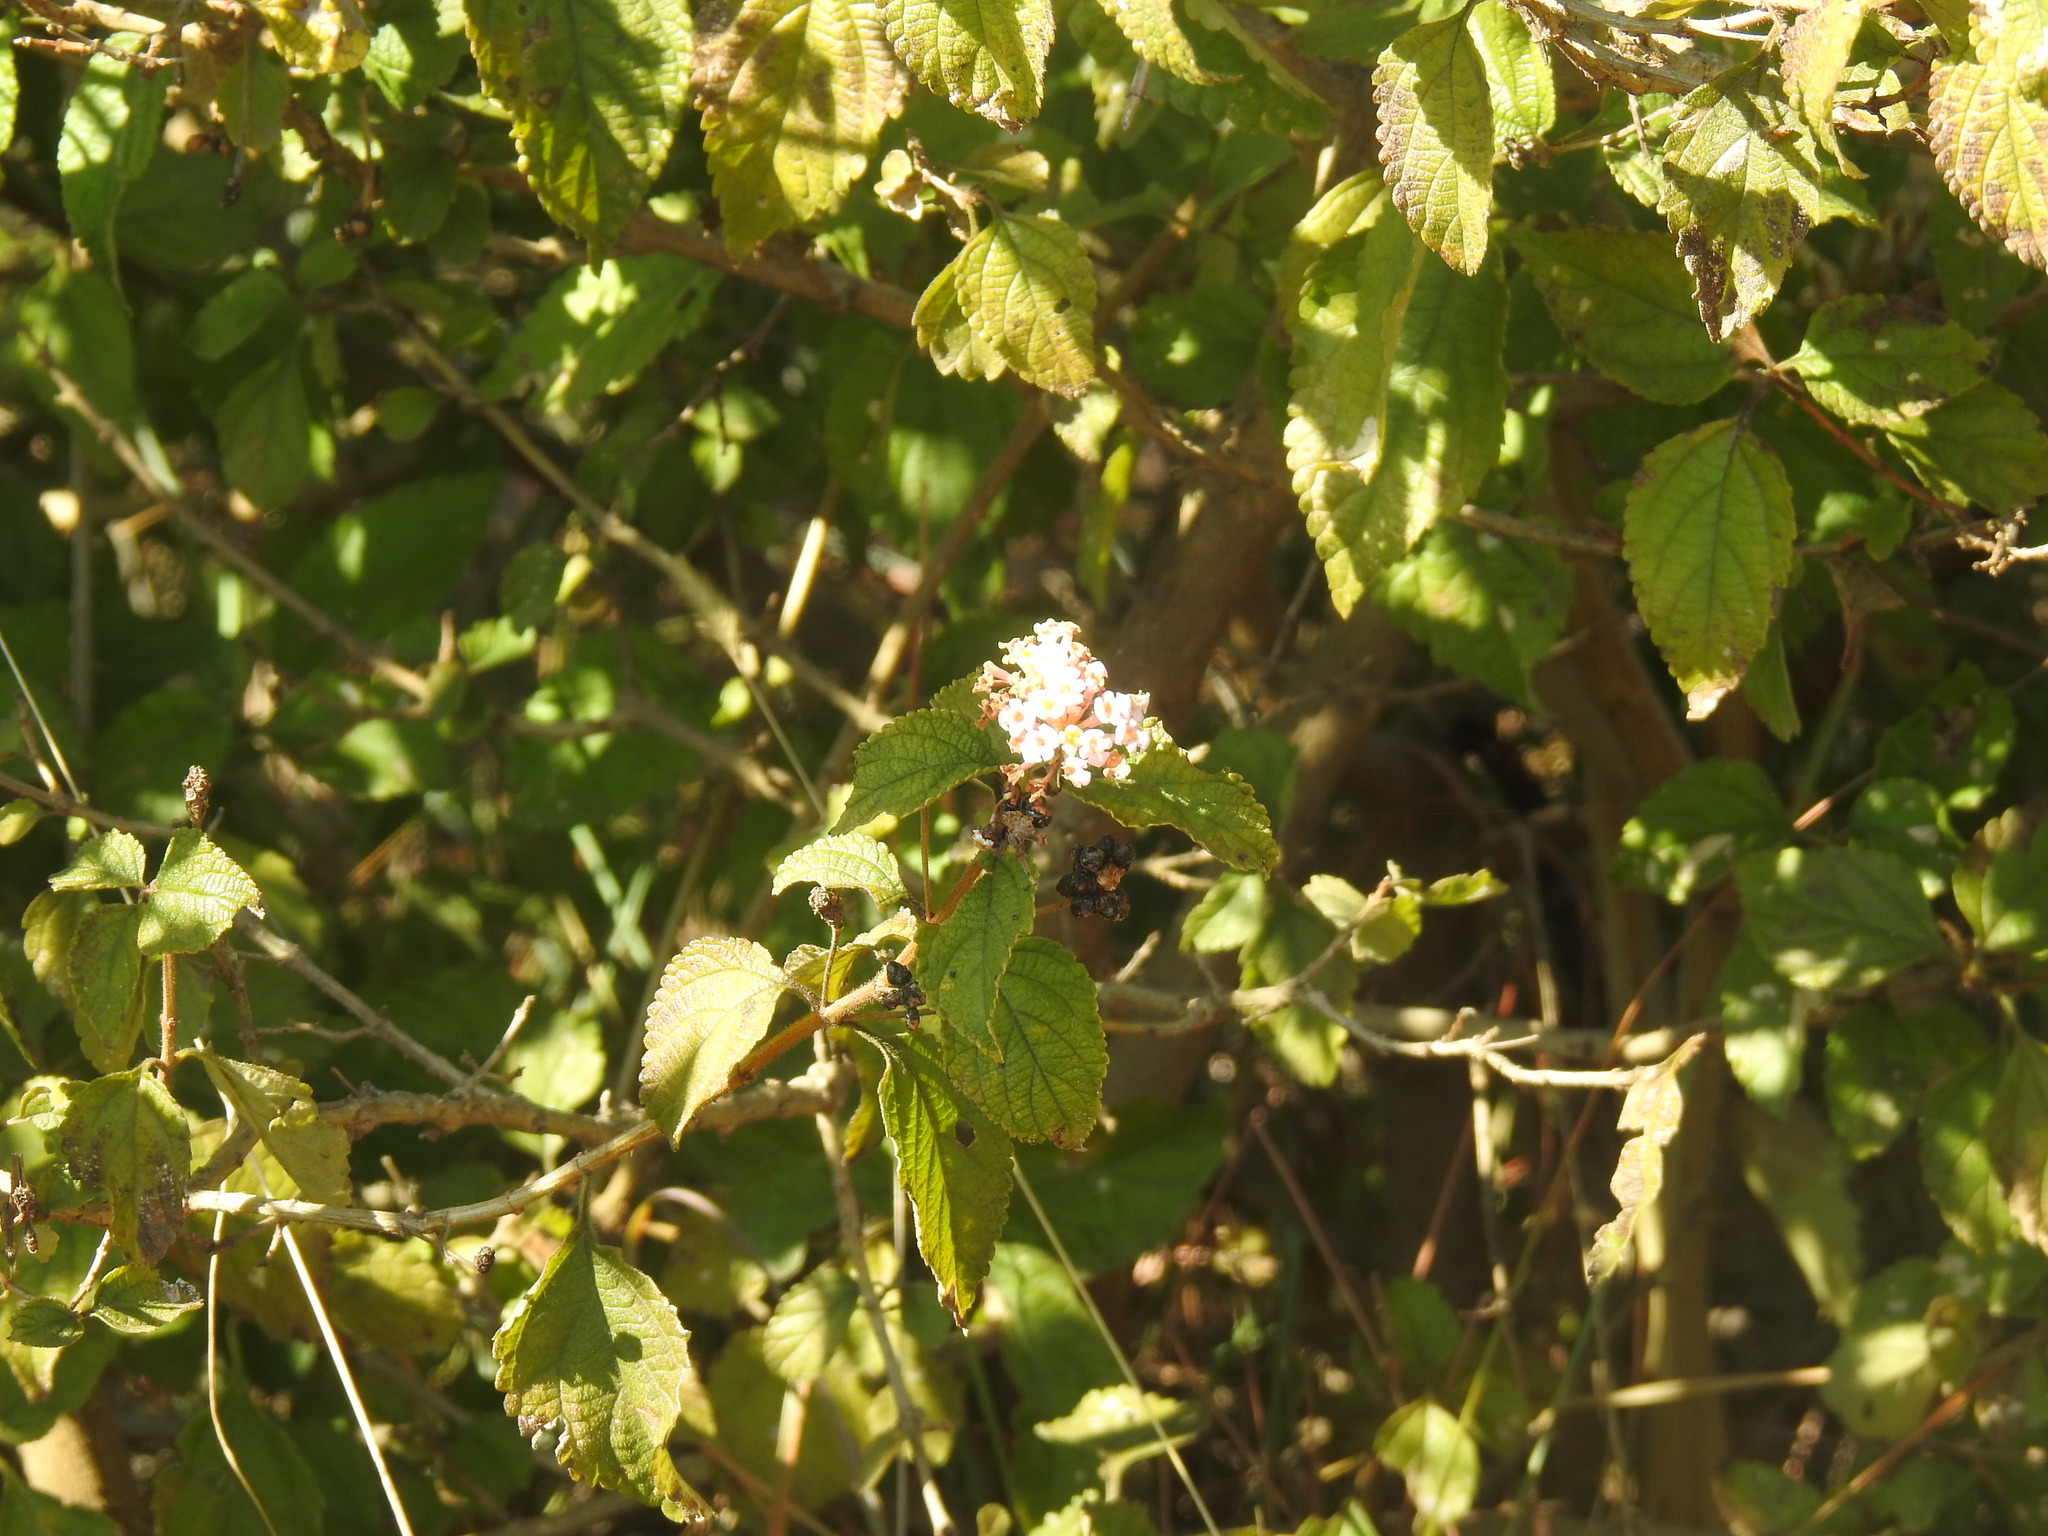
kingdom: Plantae
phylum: Tracheophyta
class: Magnoliopsida
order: Lamiales
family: Verbenaceae
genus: Lantana
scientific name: Lantana camara
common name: Lantana
